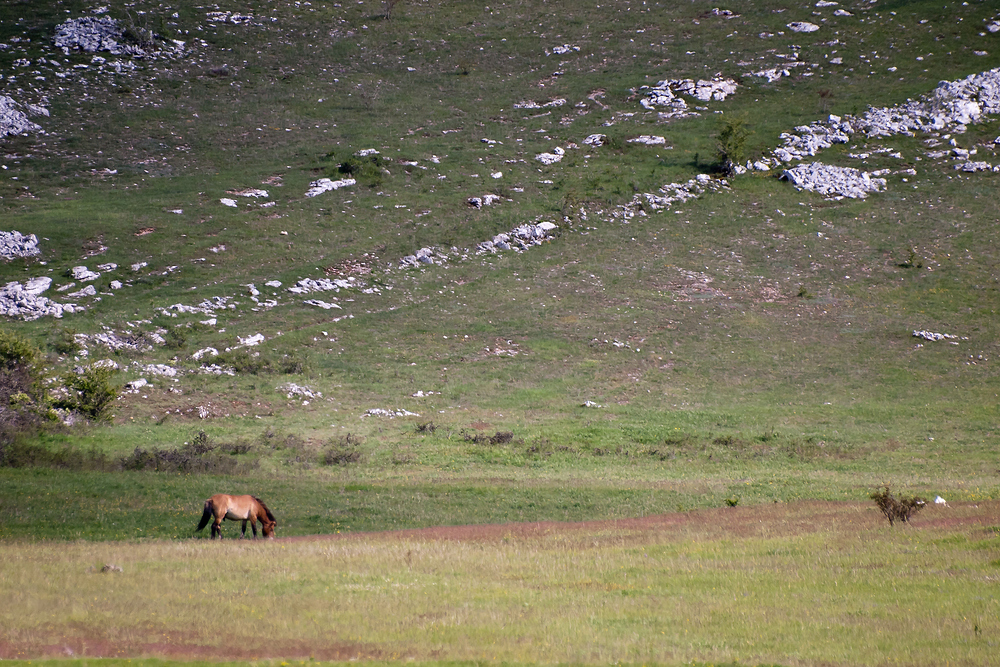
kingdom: Animalia
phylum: Chordata
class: Mammalia
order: Perissodactyla
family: Equidae
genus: Equus
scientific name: Equus przewalskii
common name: Przewalski's horse
